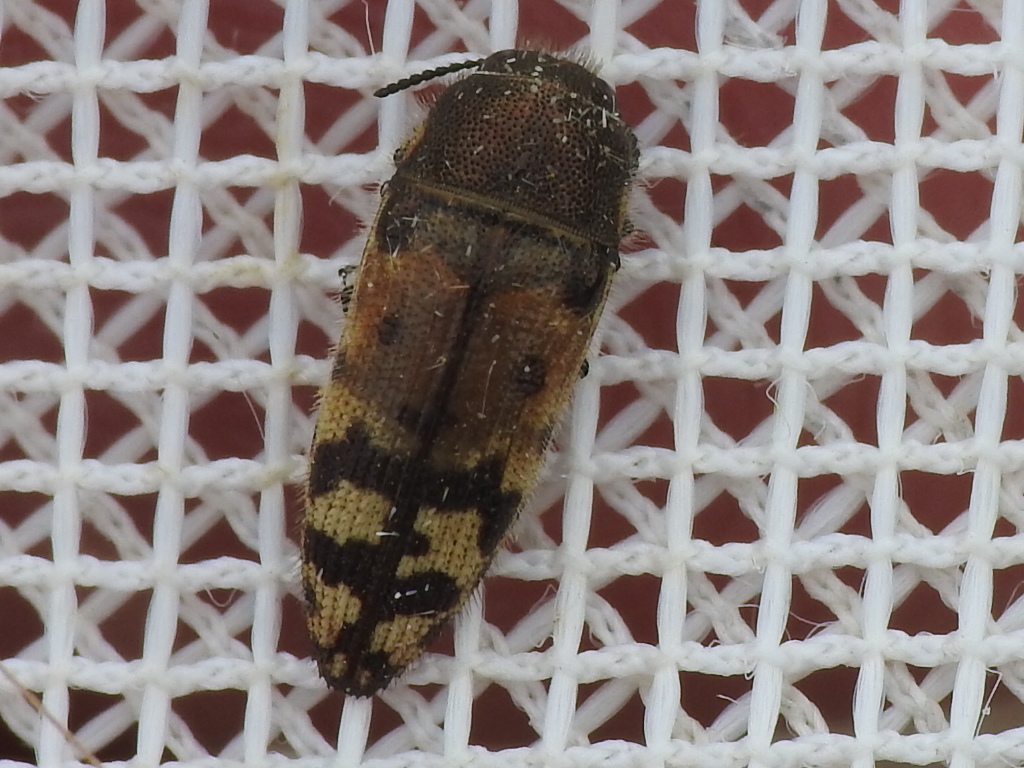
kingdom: Animalia
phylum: Arthropoda
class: Insecta
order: Coleoptera
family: Buprestidae
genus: Acmaeodera
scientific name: Acmaeodera mixta
